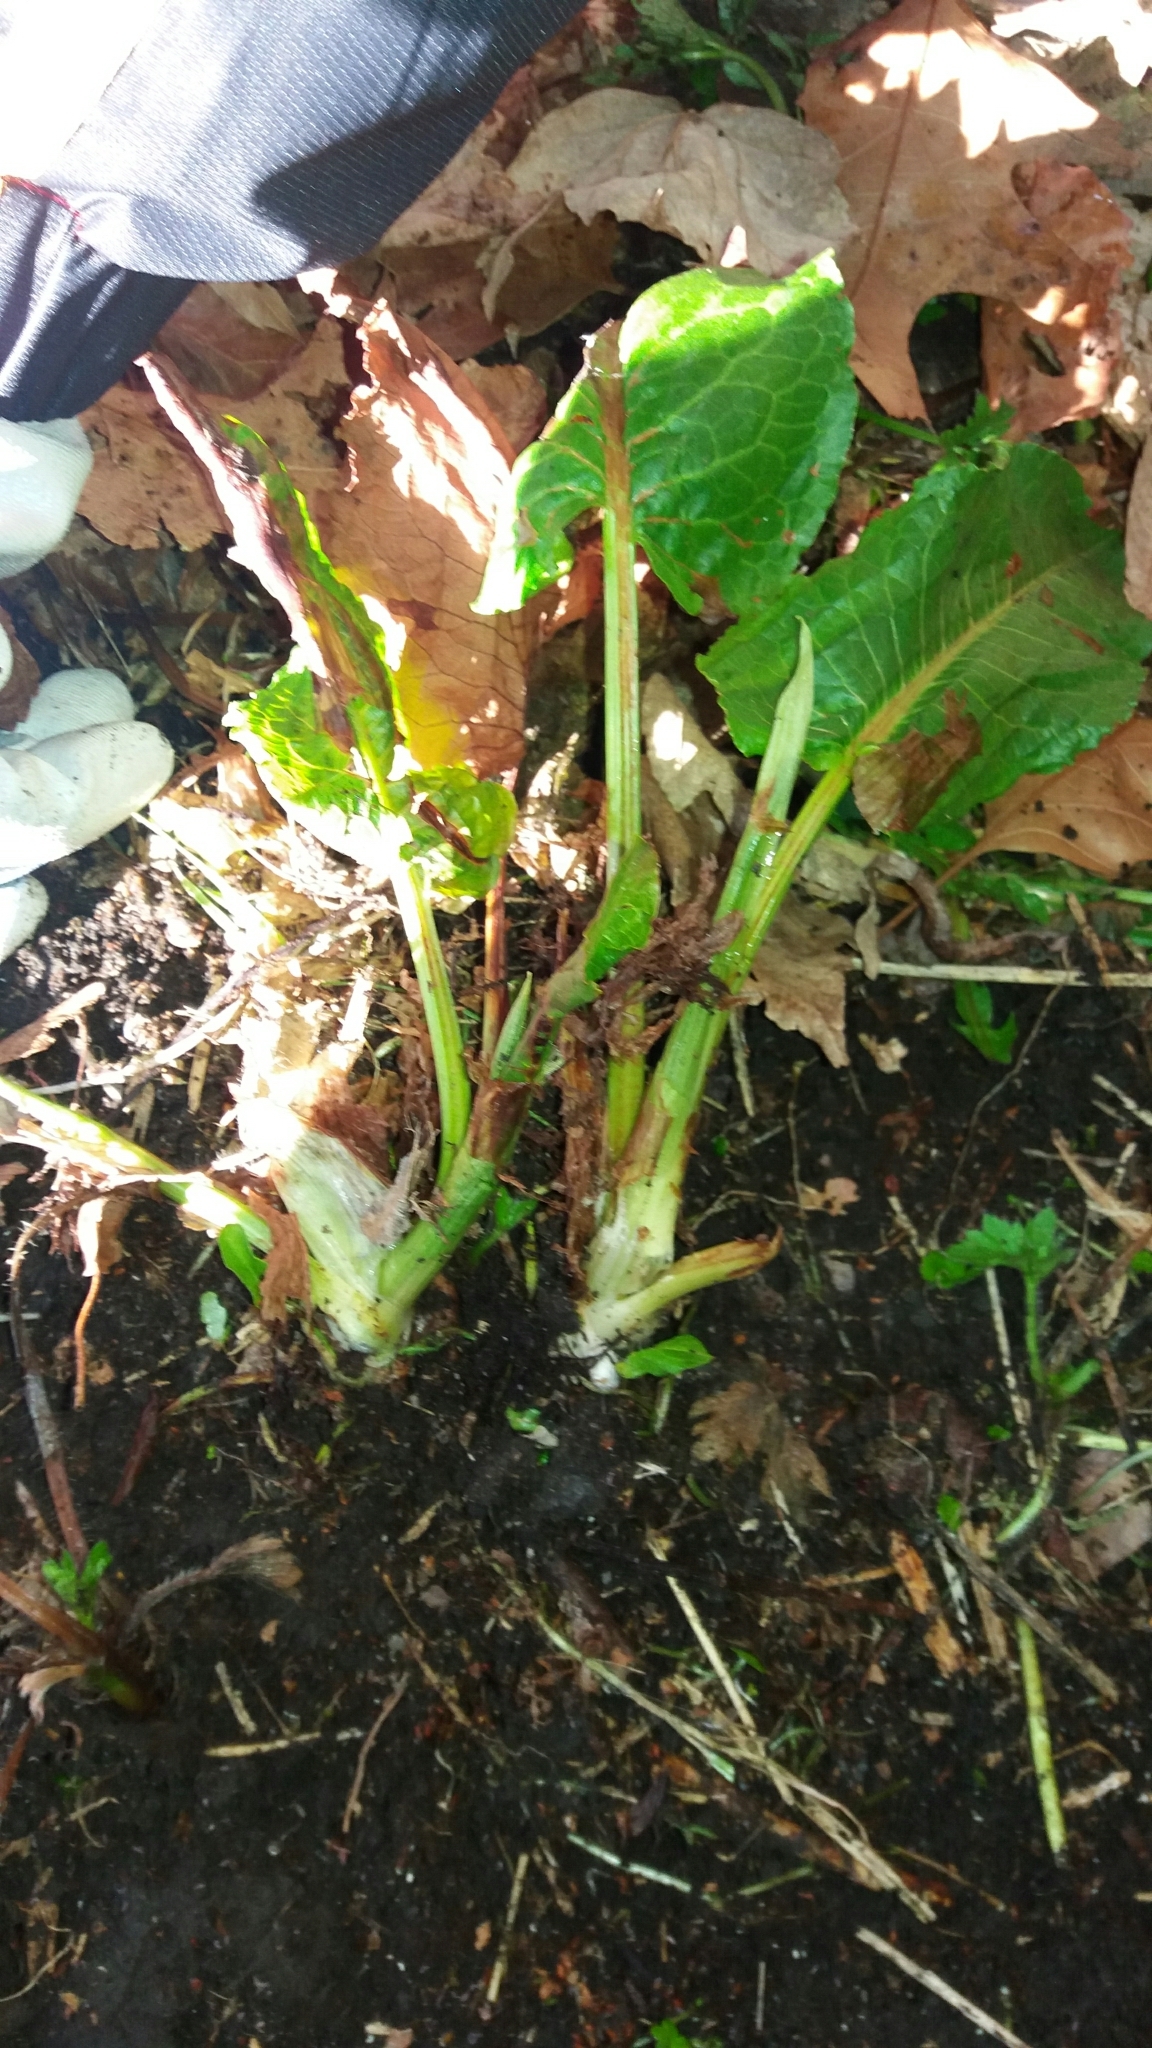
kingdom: Plantae
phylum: Tracheophyta
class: Magnoliopsida
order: Caryophyllales
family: Polygonaceae
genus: Rumex
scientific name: Rumex obtusifolius
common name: Bitter dock
